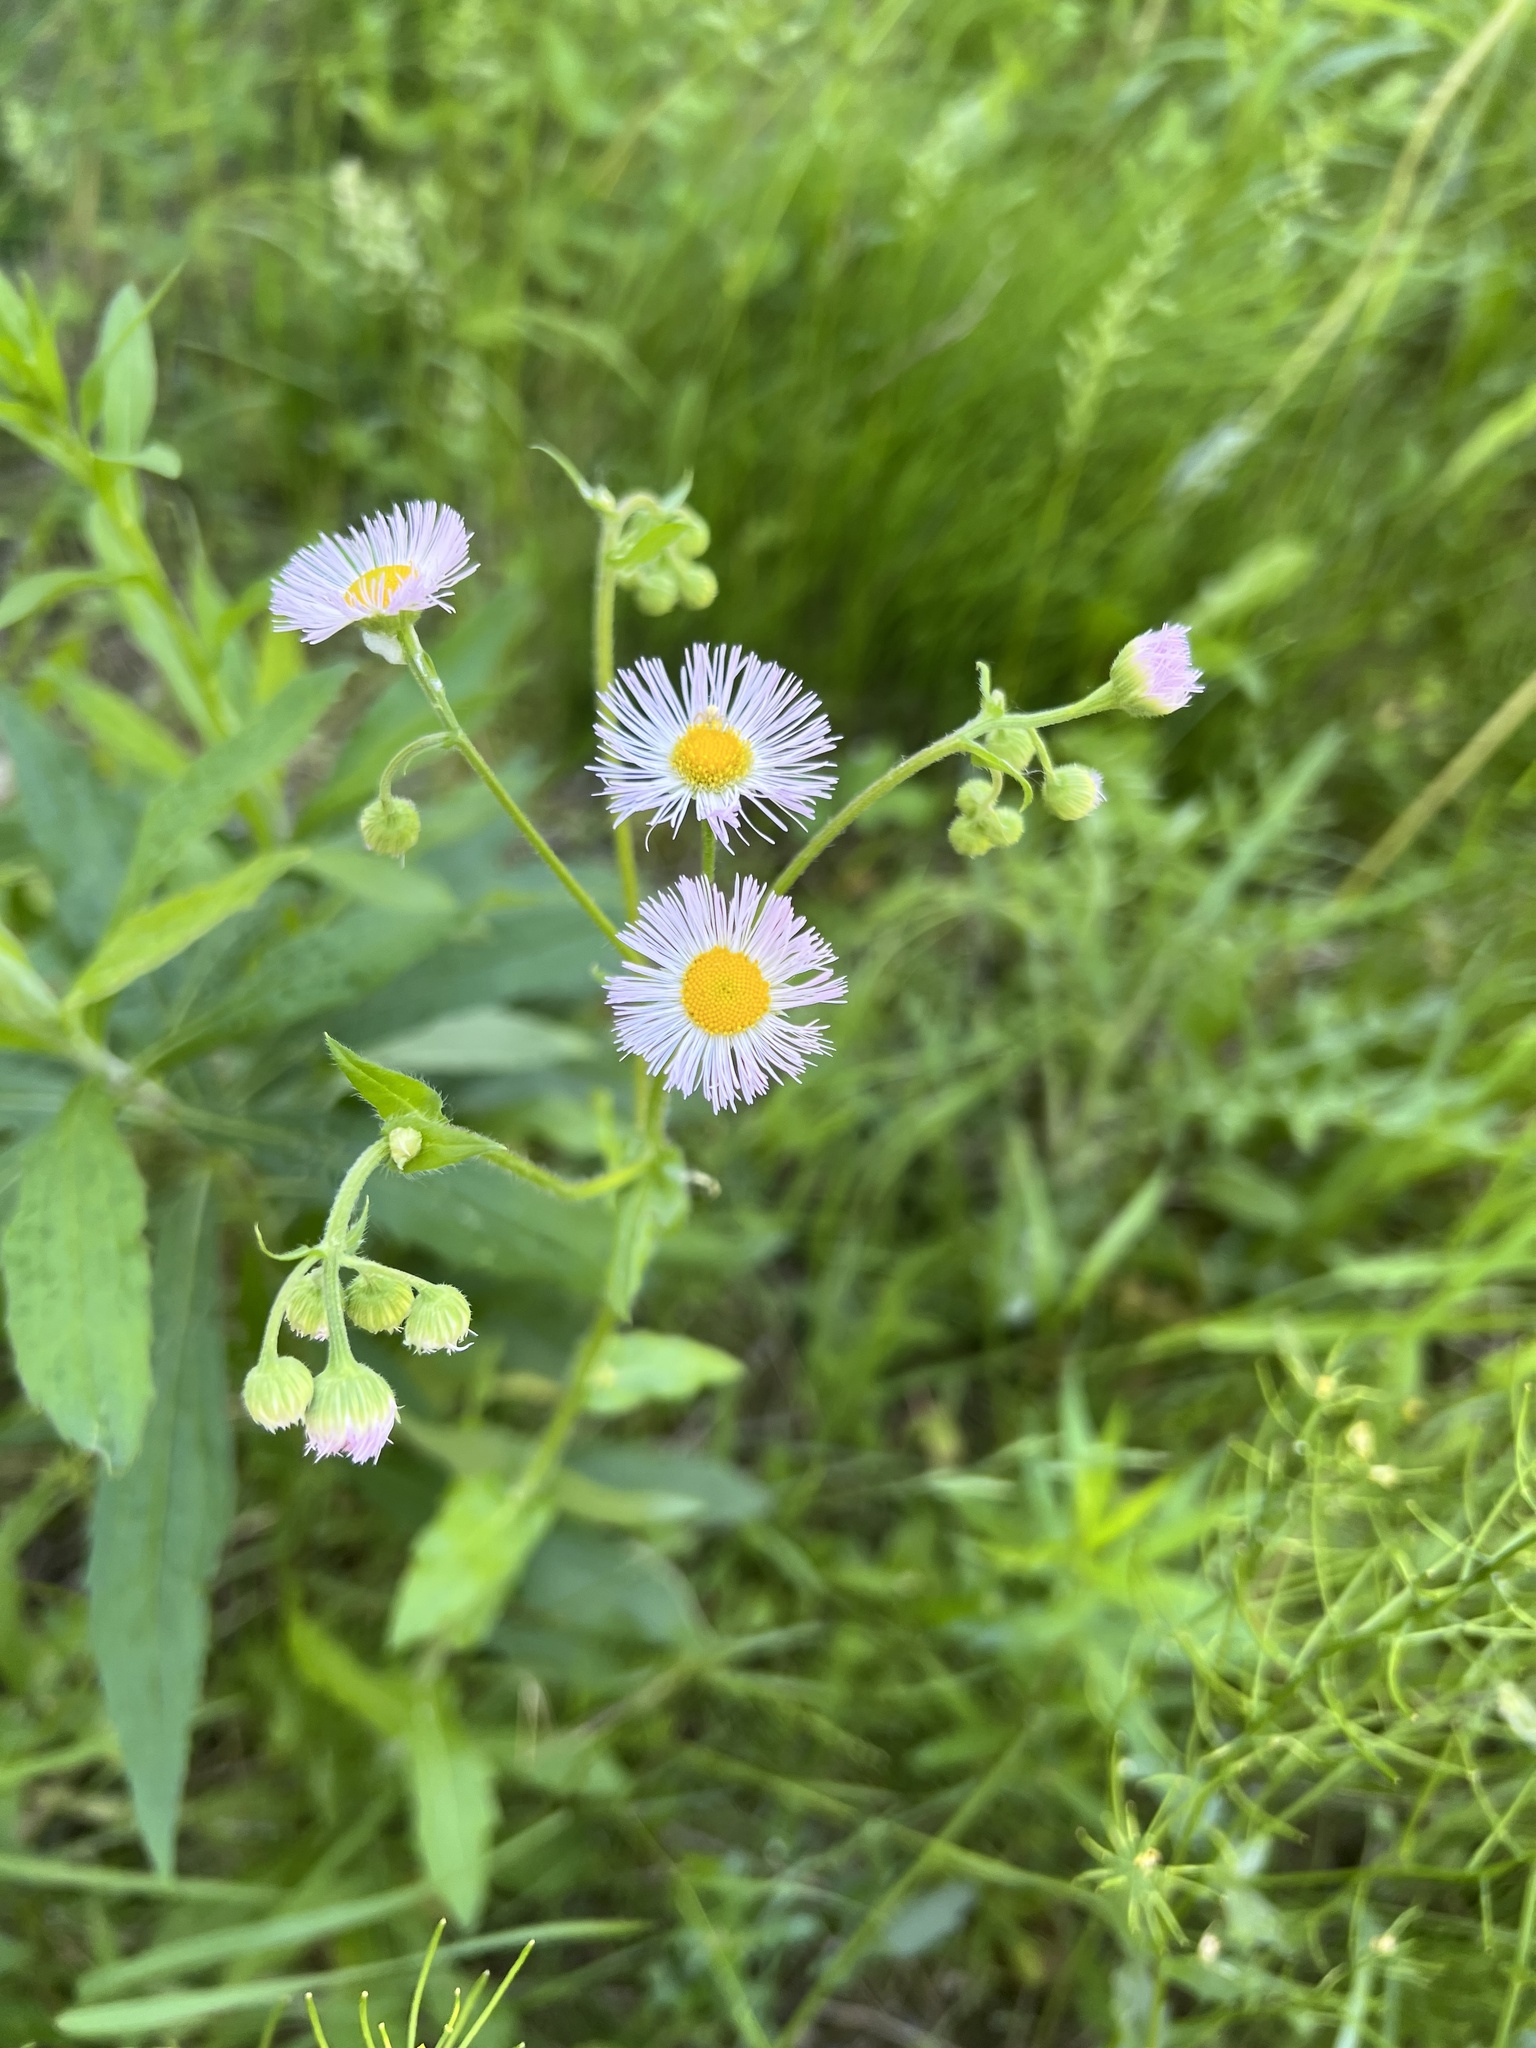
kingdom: Plantae
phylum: Tracheophyta
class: Magnoliopsida
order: Asterales
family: Asteraceae
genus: Erigeron
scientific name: Erigeron philadelphicus
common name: Robin's-plantain
